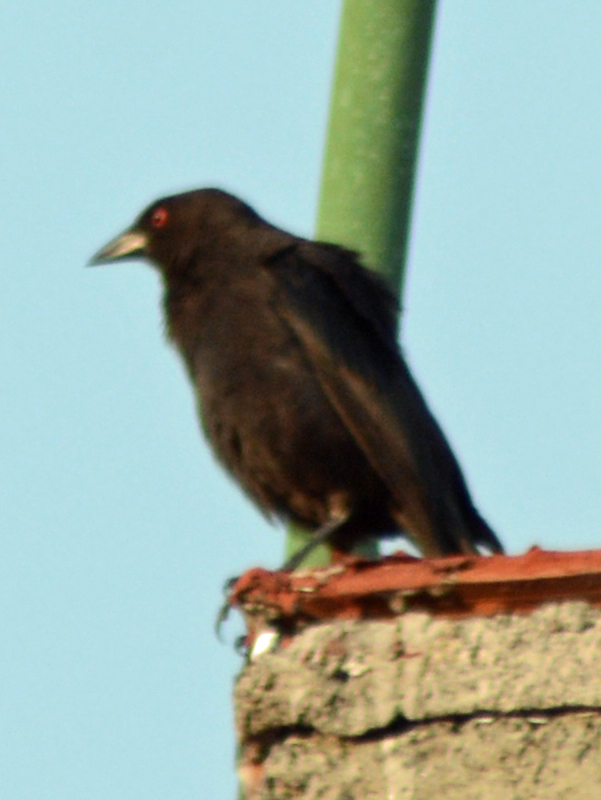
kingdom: Animalia
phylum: Chordata
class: Aves
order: Passeriformes
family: Icteridae
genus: Molothrus
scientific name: Molothrus aeneus
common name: Bronzed cowbird
